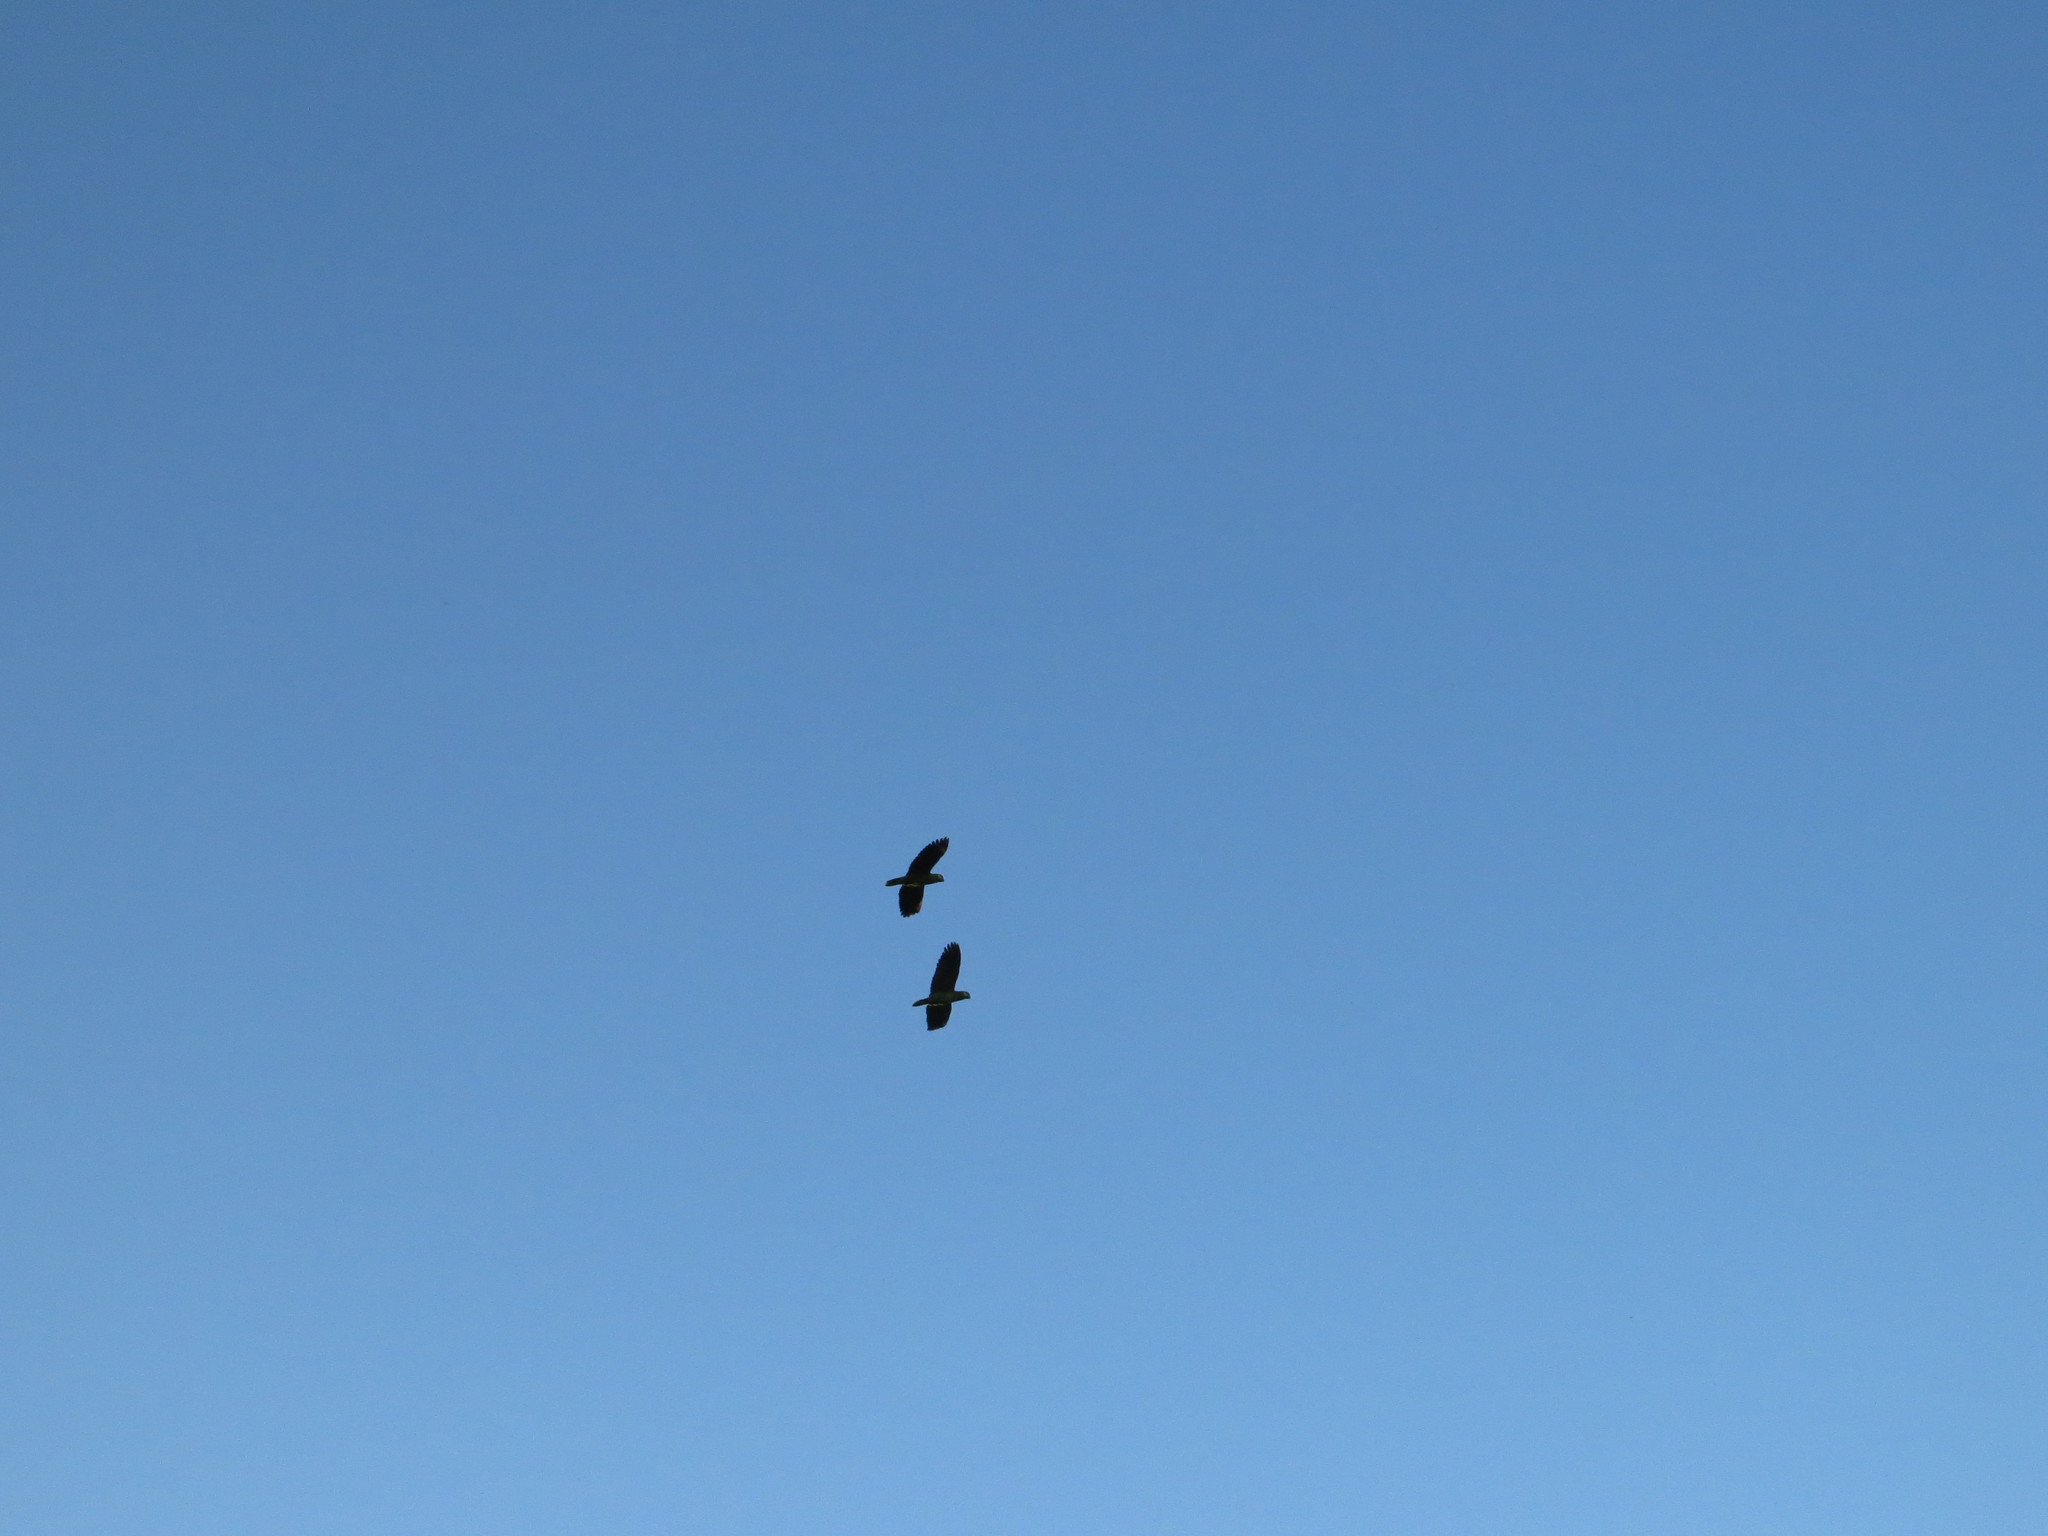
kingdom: Animalia
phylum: Chordata
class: Aves
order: Psittaciformes
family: Psittacidae
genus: Amazona
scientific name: Amazona aestiva
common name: Turquoise-fronted amazon
